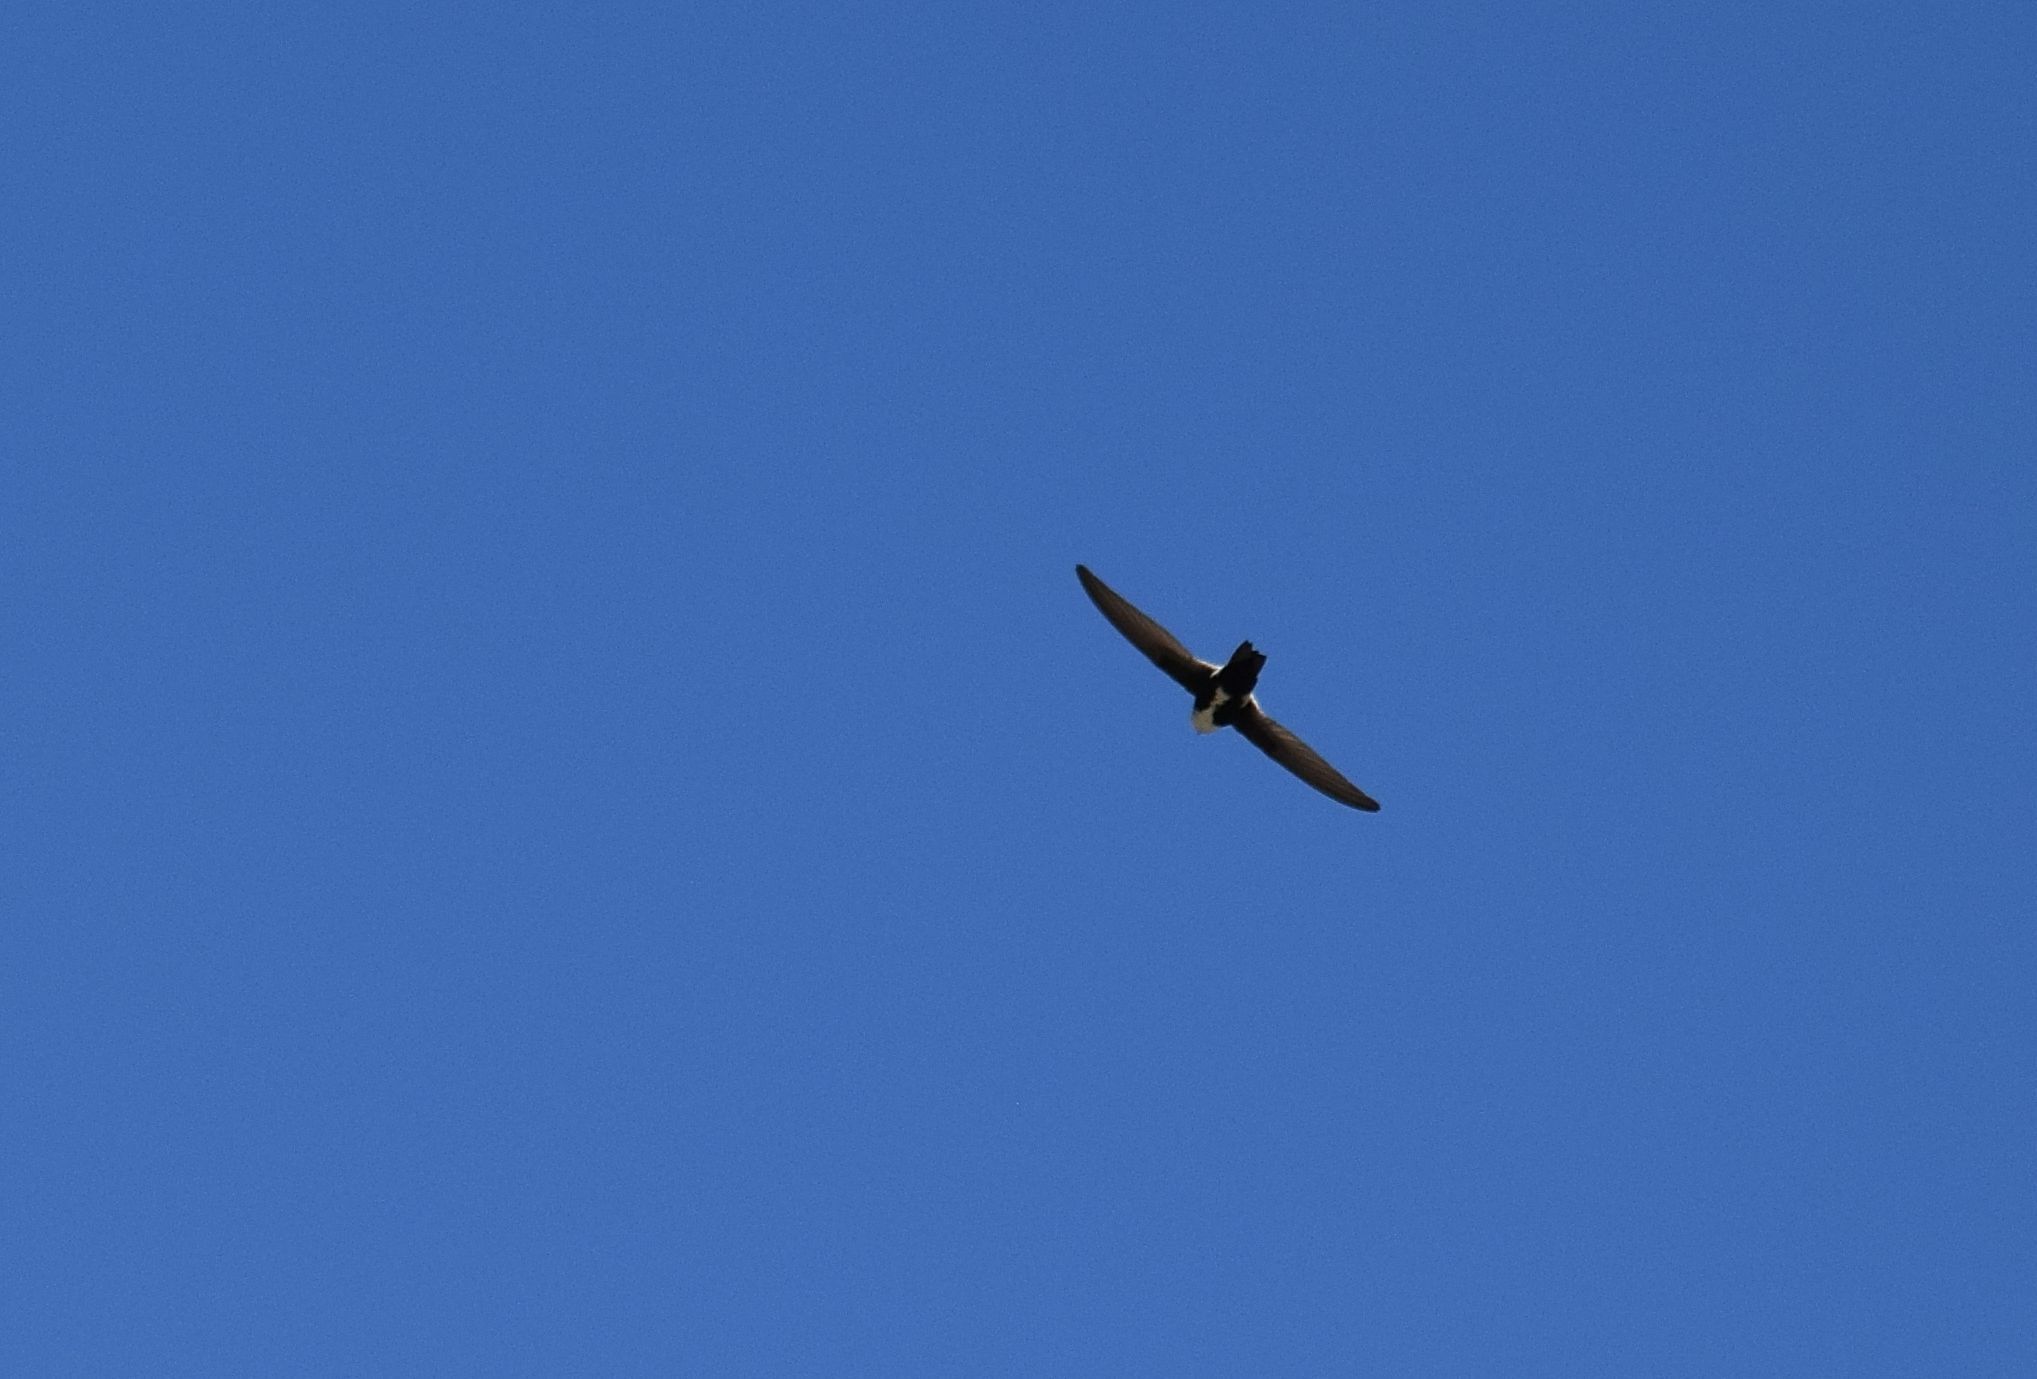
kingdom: Animalia
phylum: Chordata
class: Aves
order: Apodiformes
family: Apodidae
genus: Aeronautes
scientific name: Aeronautes saxatalis
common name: White-throated swift
